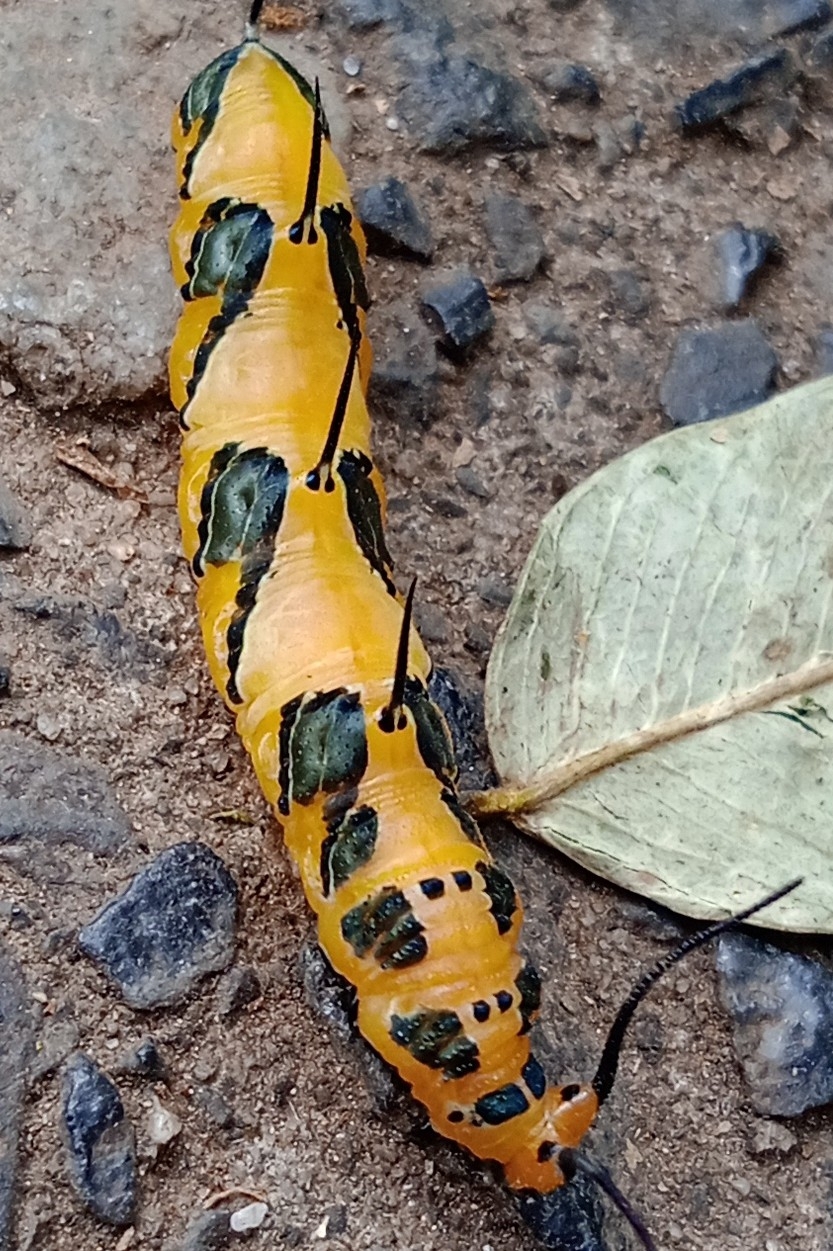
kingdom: Animalia
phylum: Arthropoda
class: Insecta
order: Lepidoptera
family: Nymphalidae
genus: Marpesia
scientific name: Marpesia petreus
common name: Red dagger wing
